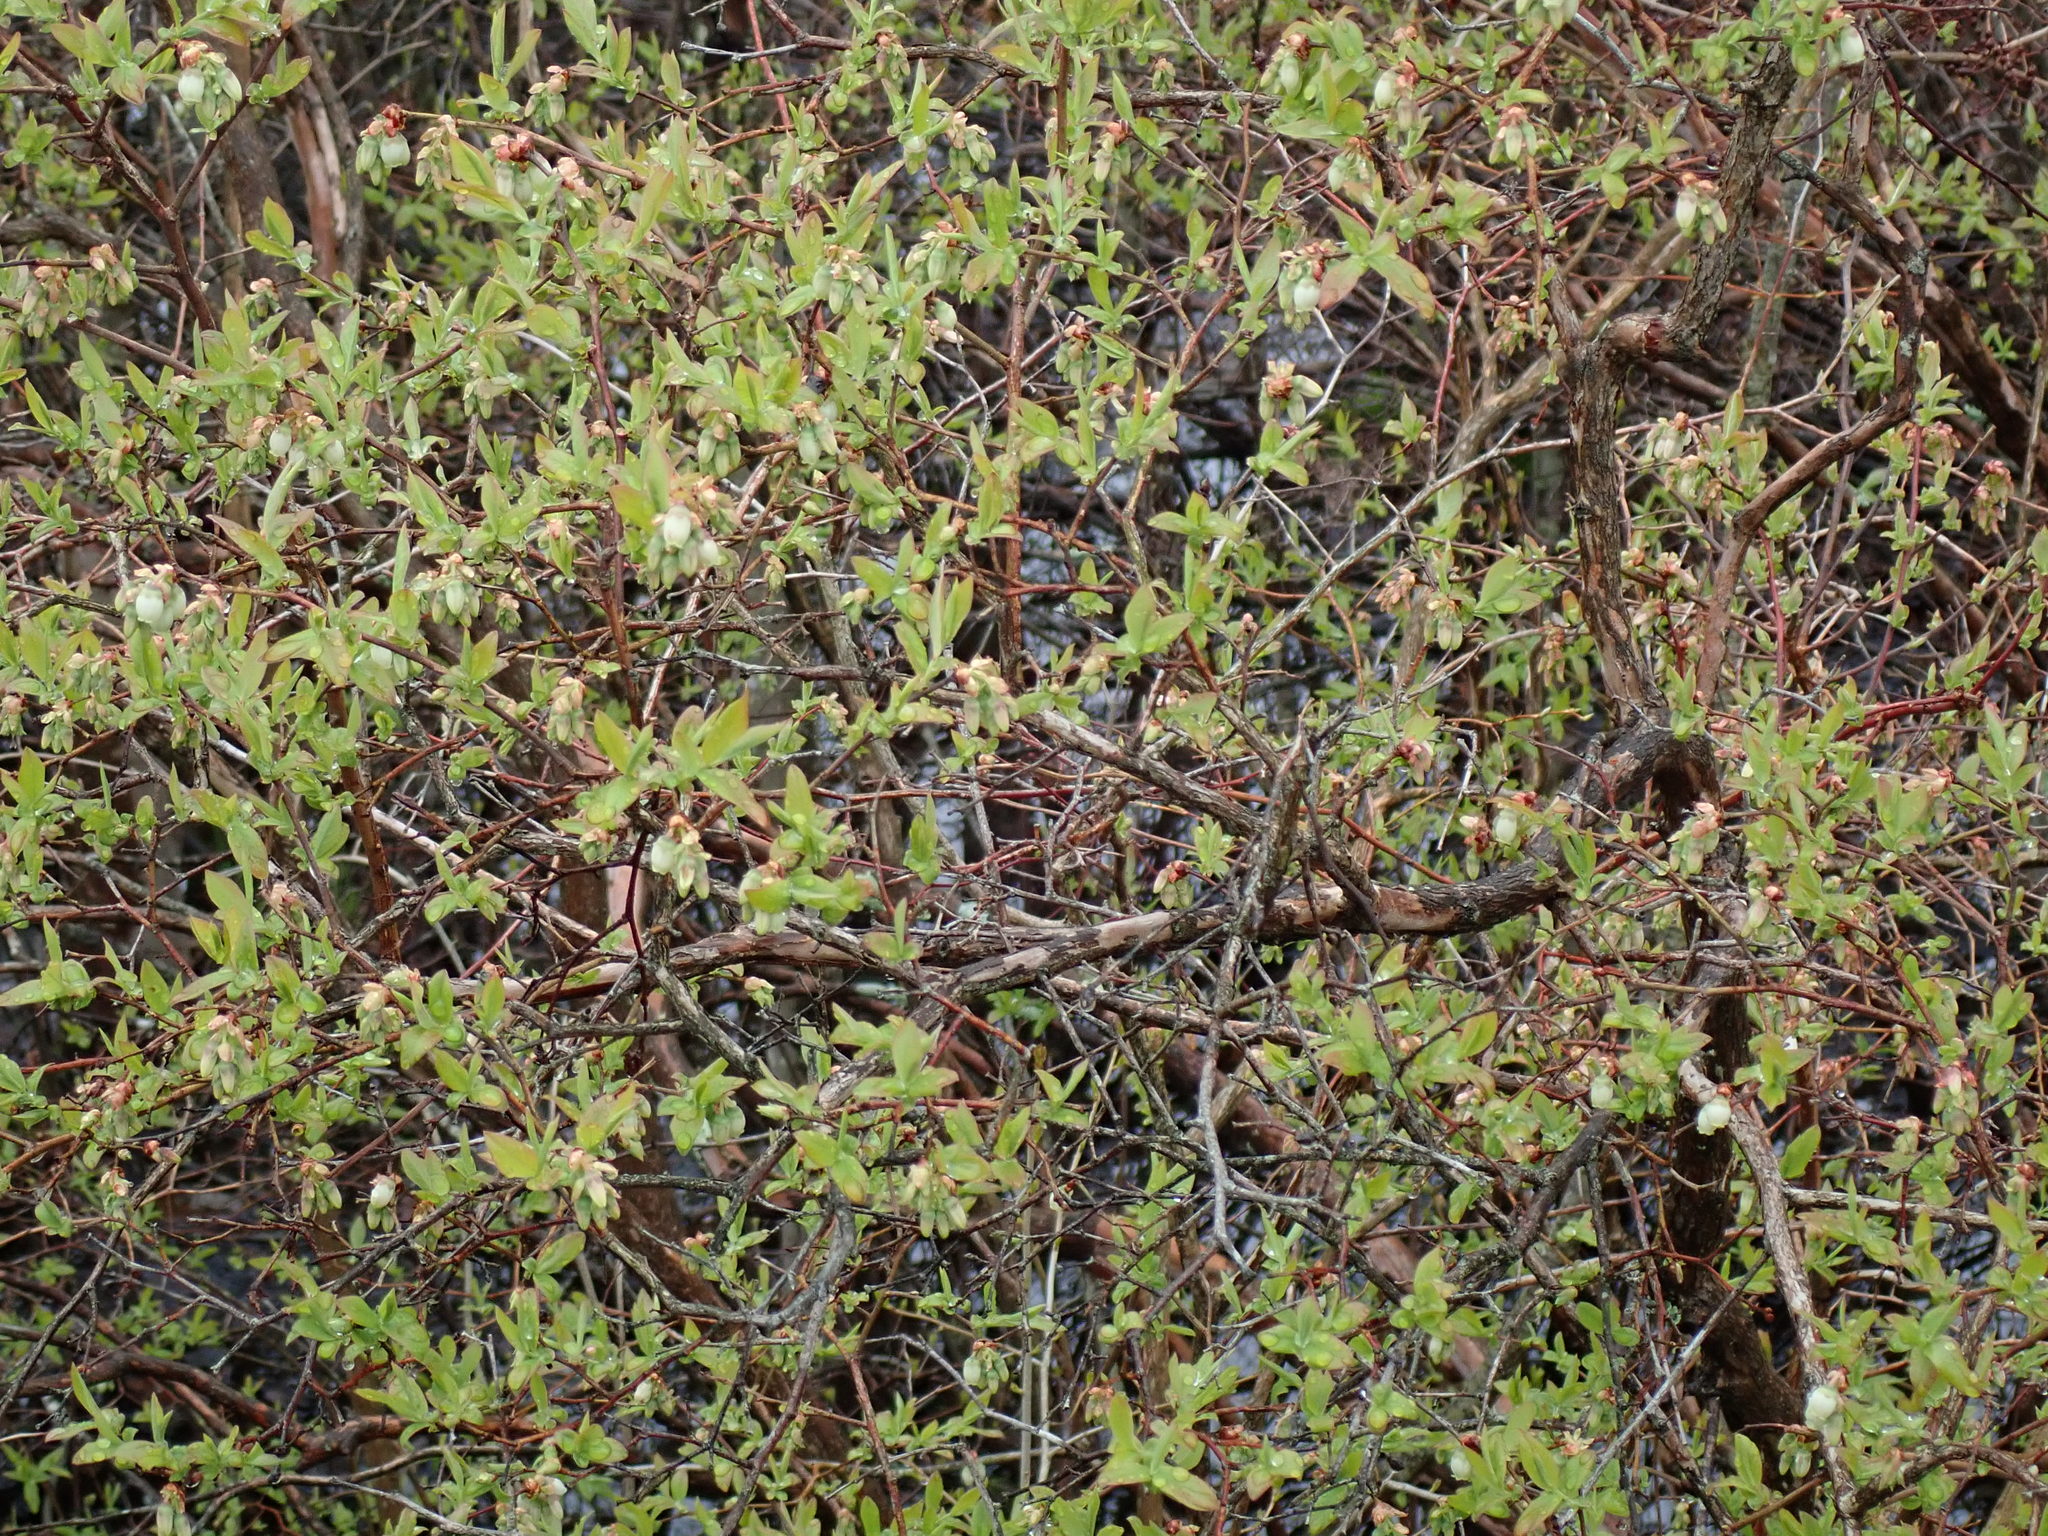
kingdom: Plantae
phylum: Tracheophyta
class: Magnoliopsida
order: Ericales
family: Ericaceae
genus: Vaccinium
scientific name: Vaccinium corymbosum
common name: Blueberry
